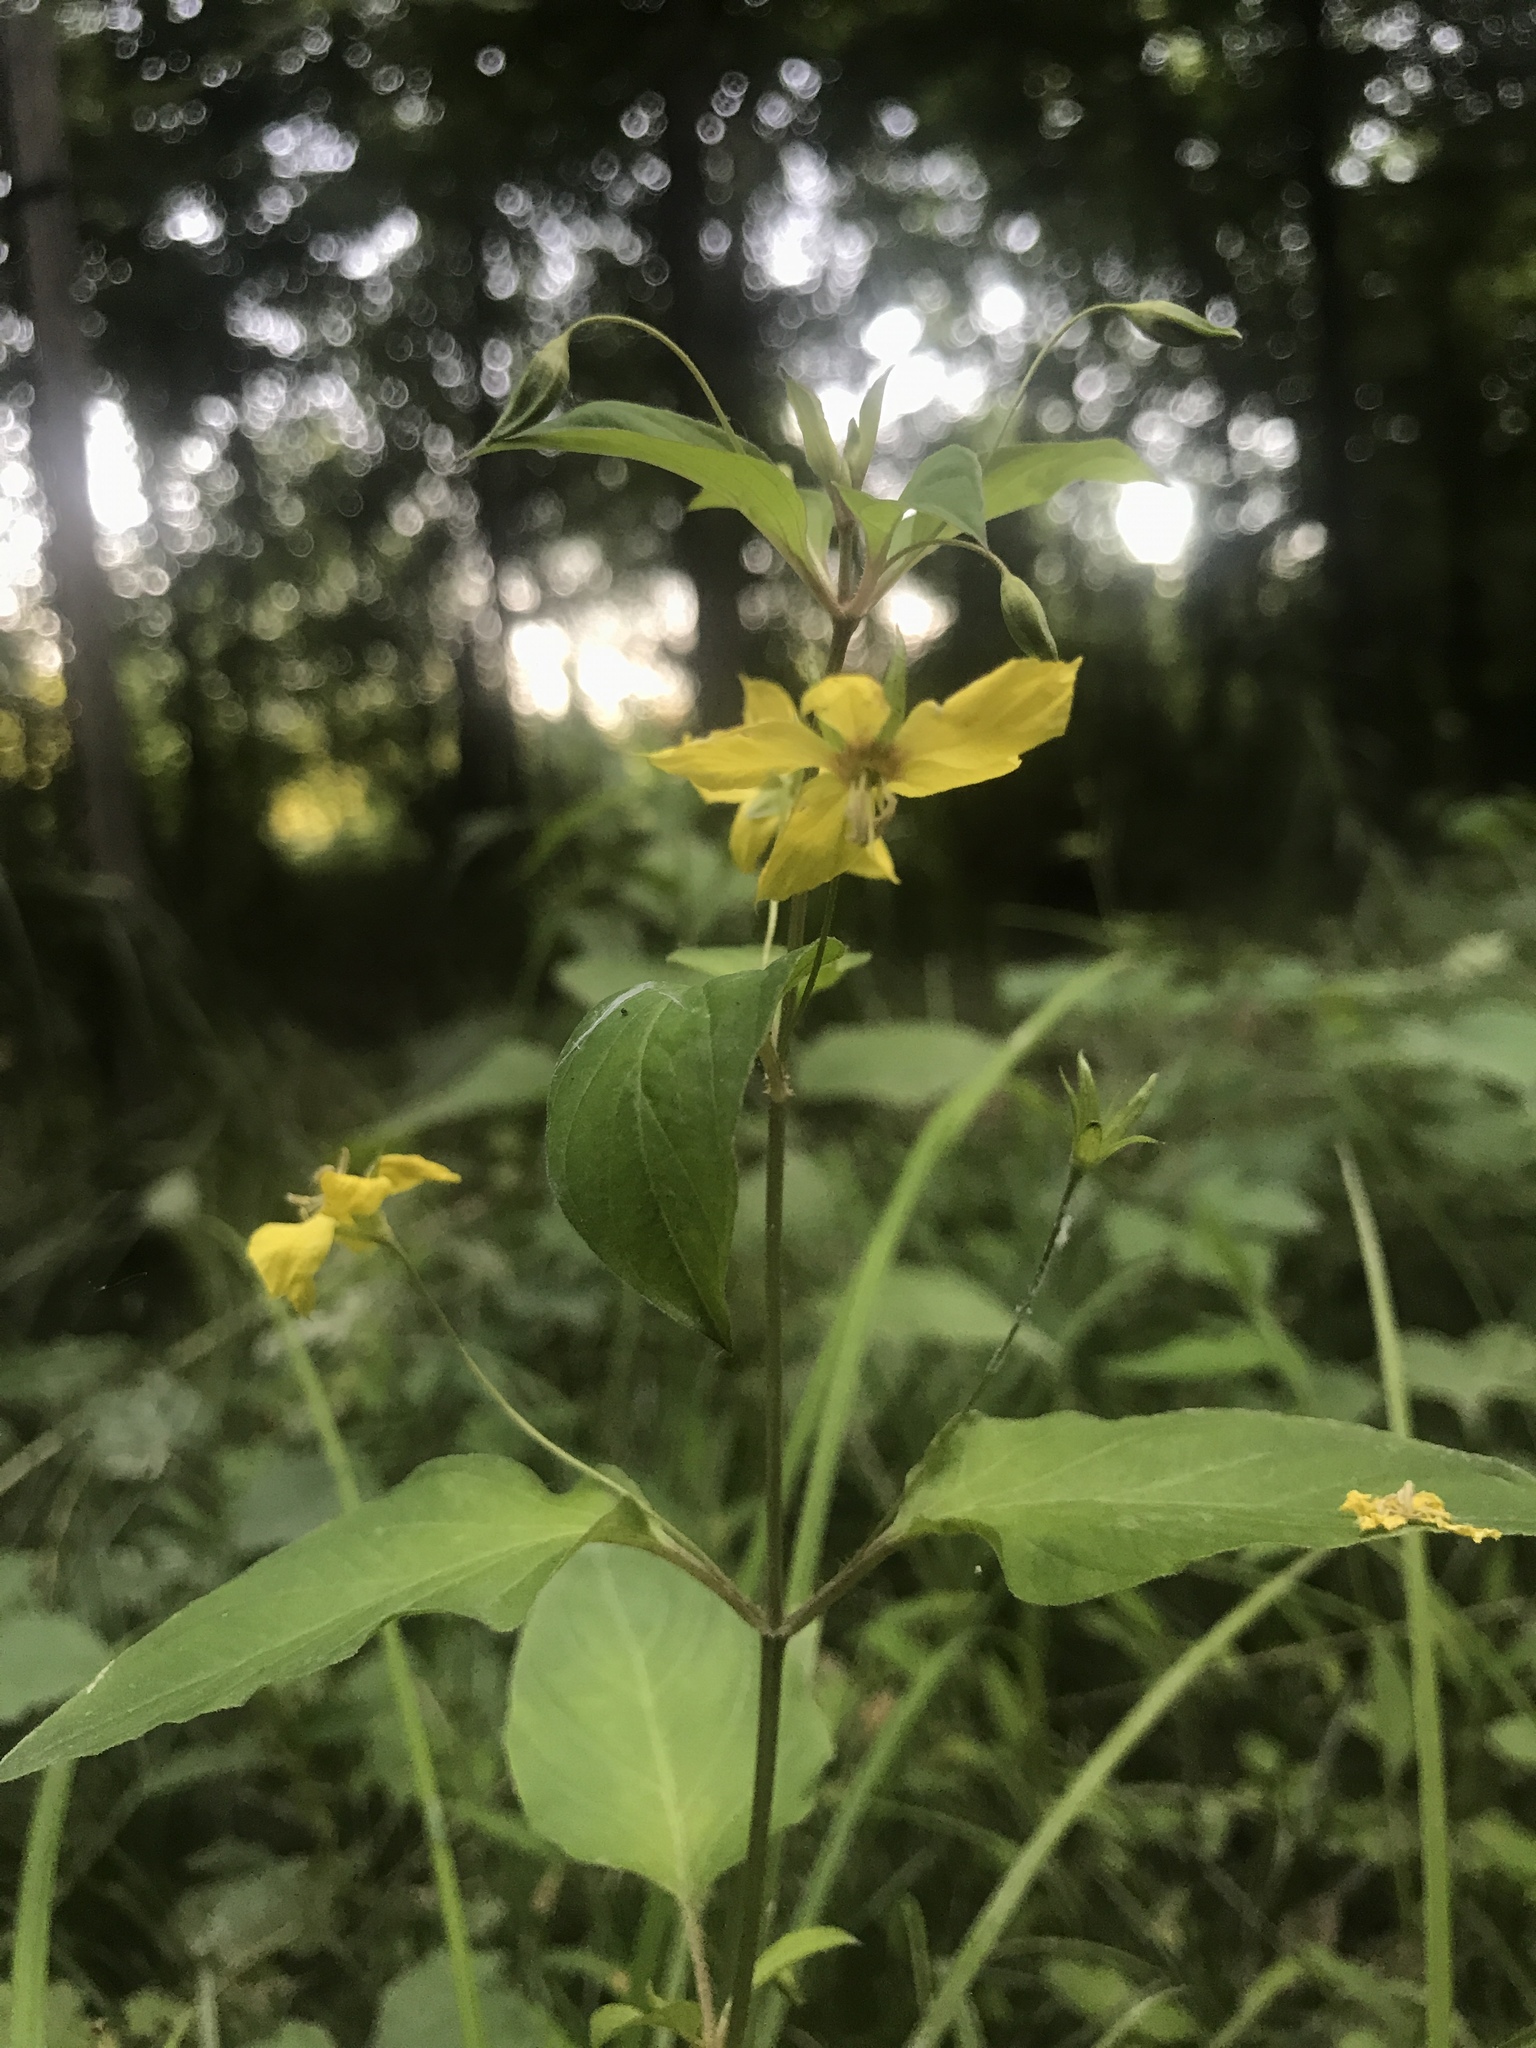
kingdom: Plantae
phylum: Tracheophyta
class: Magnoliopsida
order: Ericales
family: Primulaceae
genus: Lysimachia
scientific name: Lysimachia ciliata
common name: Fringed loosestrife
